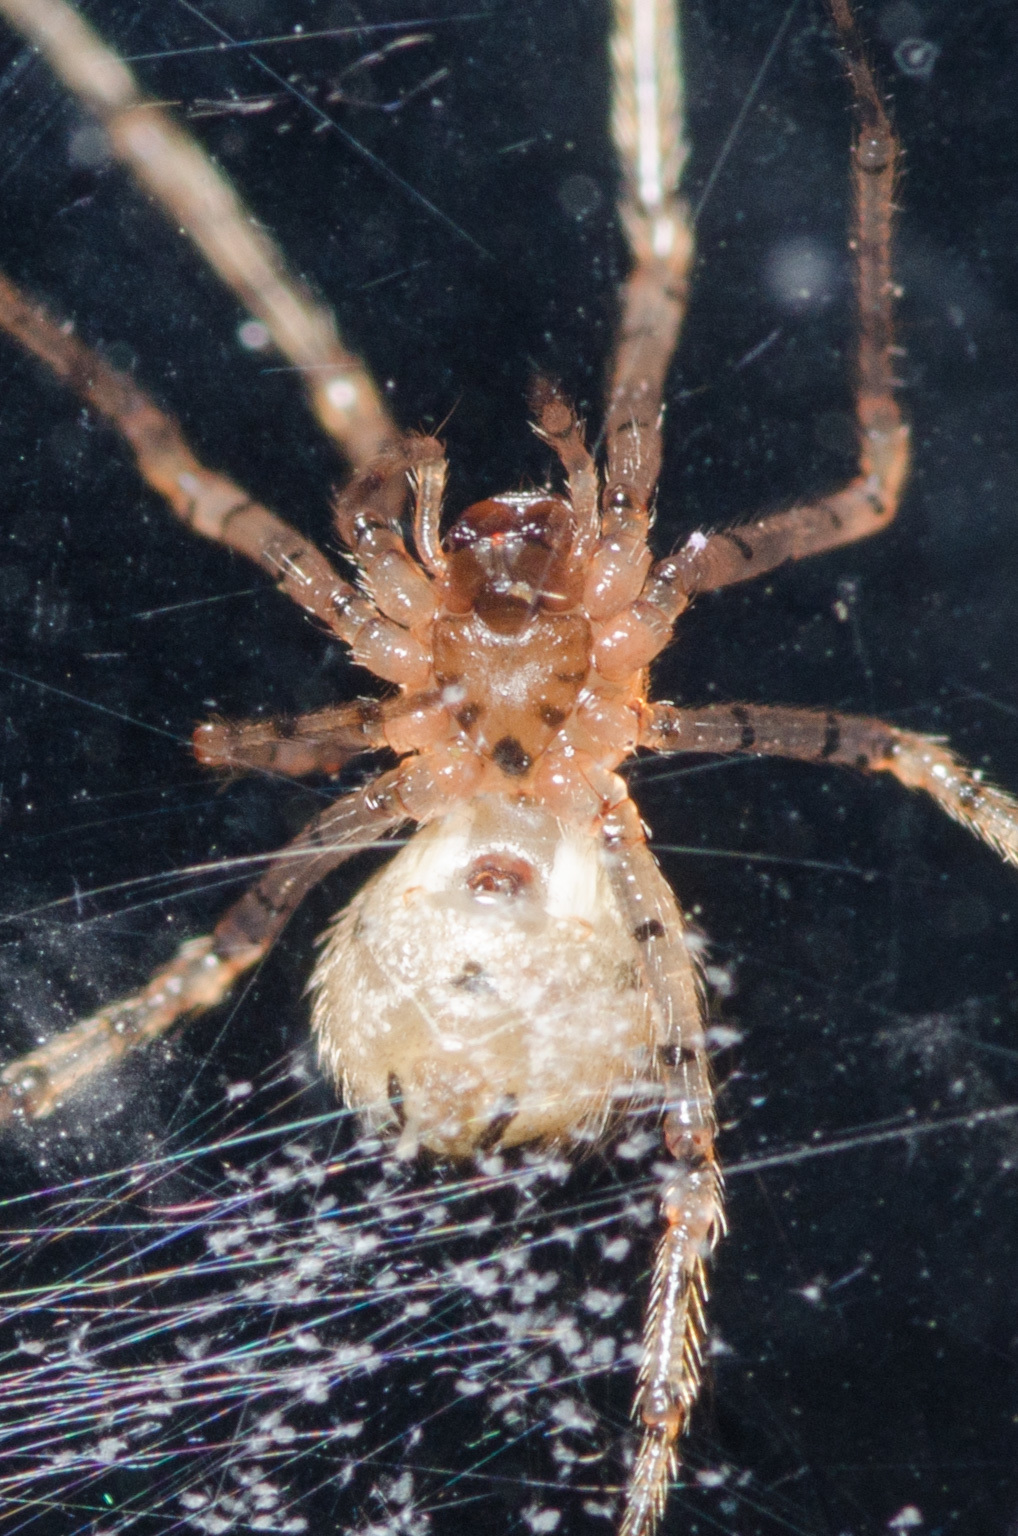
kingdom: Animalia
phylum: Arthropoda
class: Arachnida
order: Araneae
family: Theridiidae
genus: Platnickina
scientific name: Platnickina mneon
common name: Theridiid spidereater
